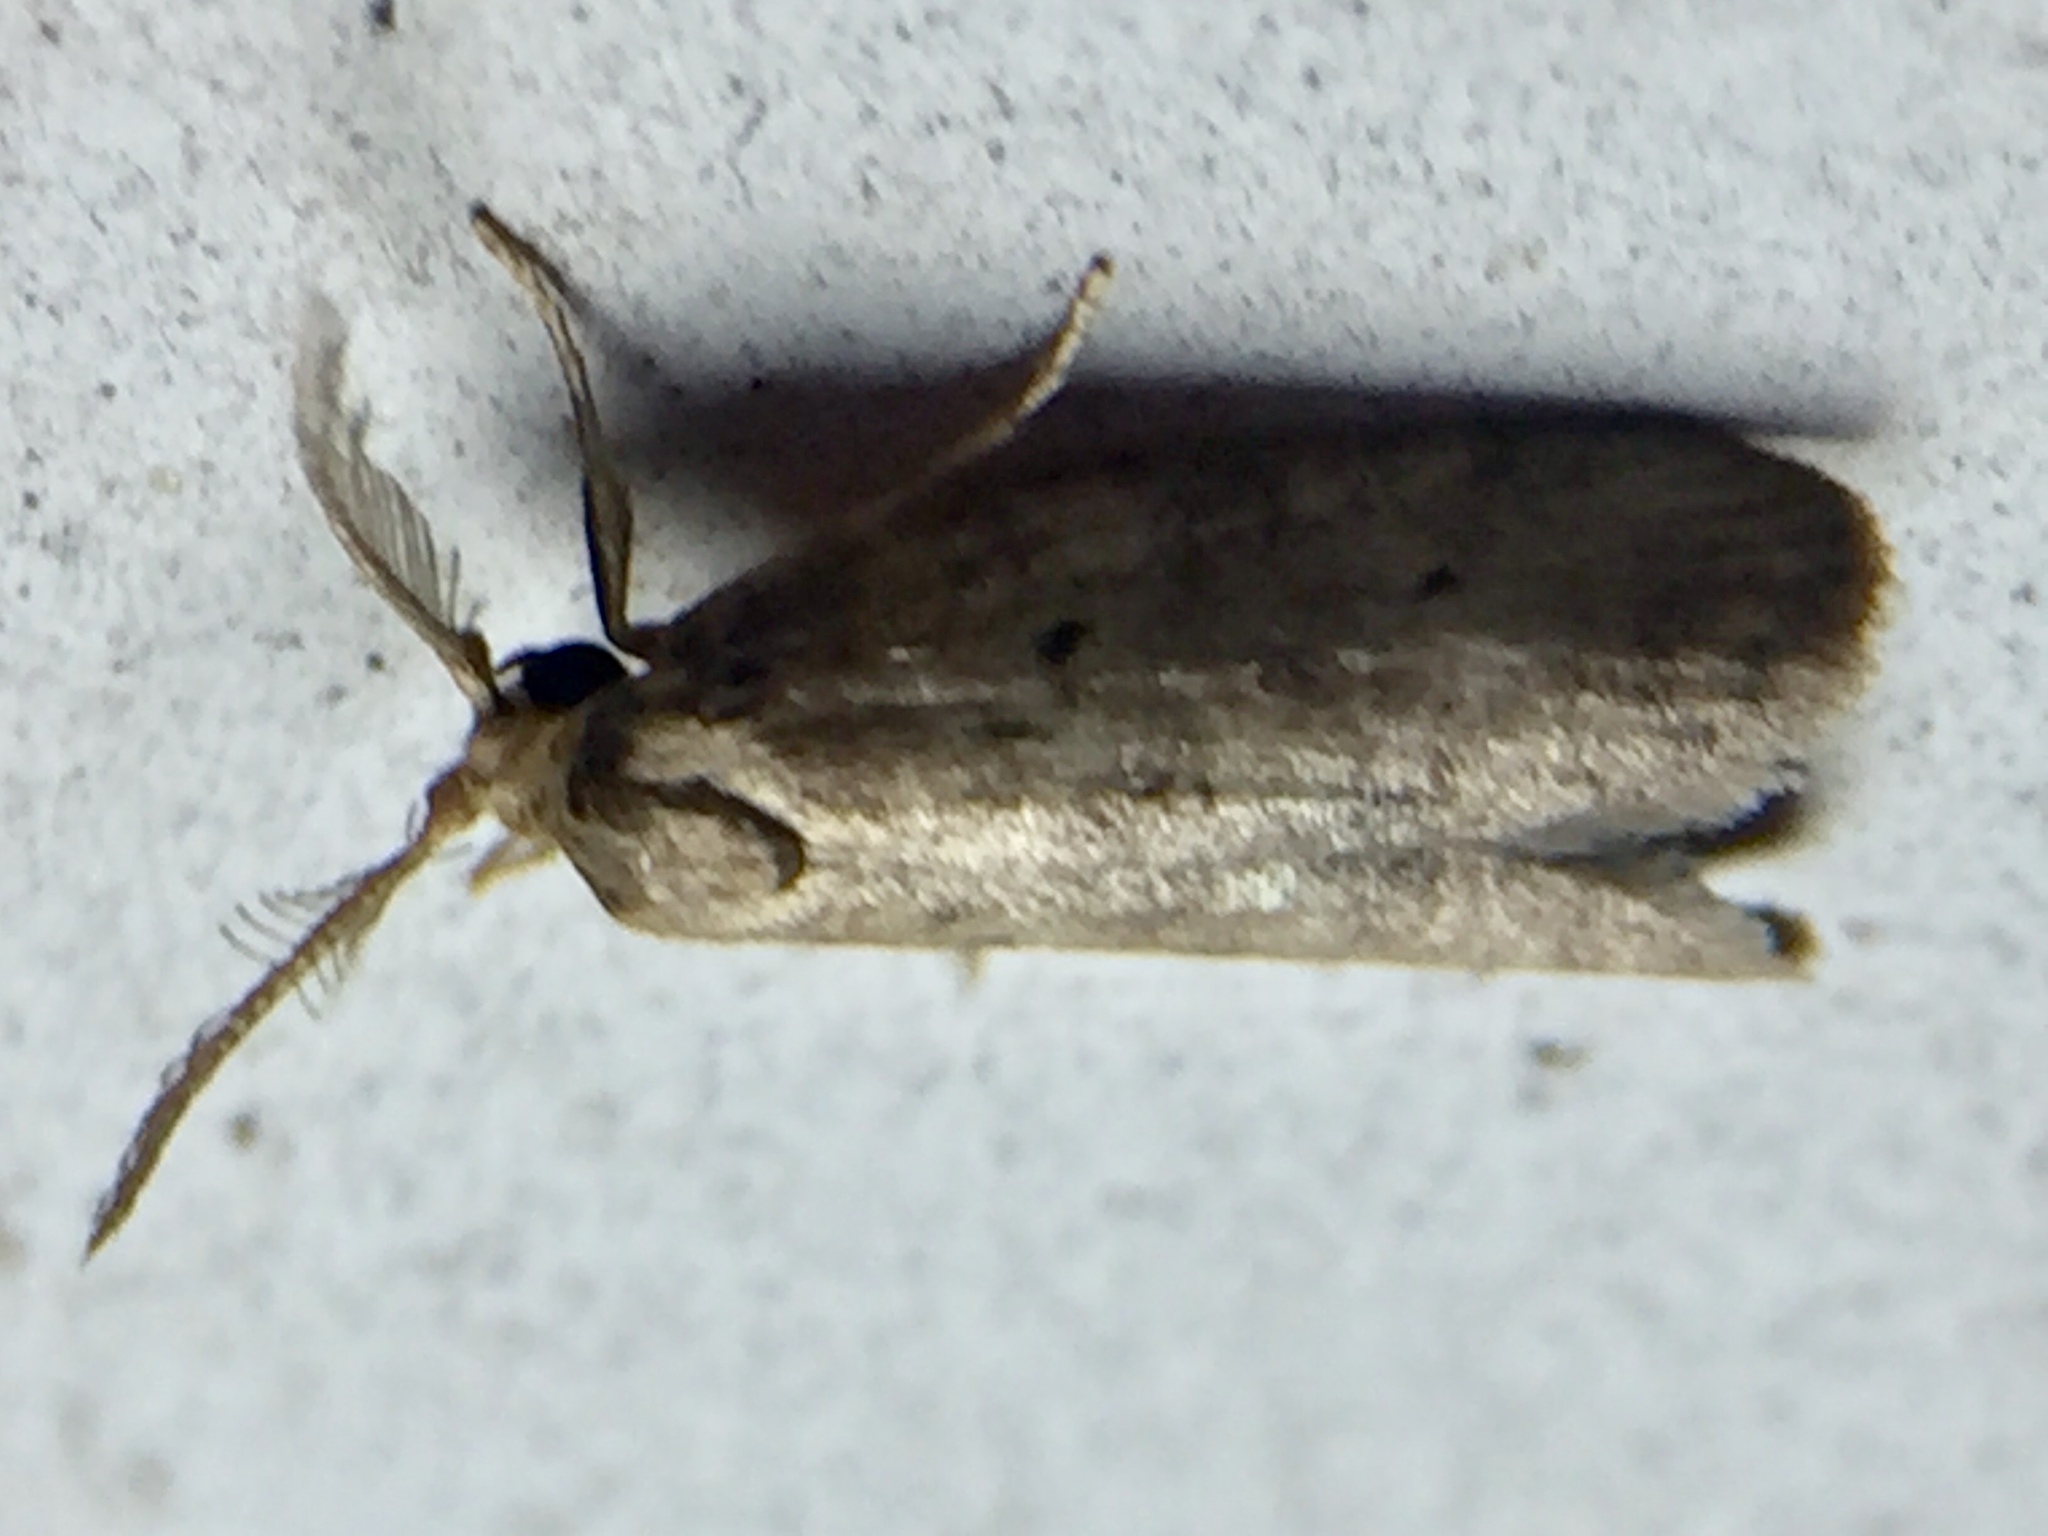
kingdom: Animalia
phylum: Arthropoda
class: Insecta
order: Lepidoptera
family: Galacticidae
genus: Tanaoctena
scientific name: Tanaoctena dubia
